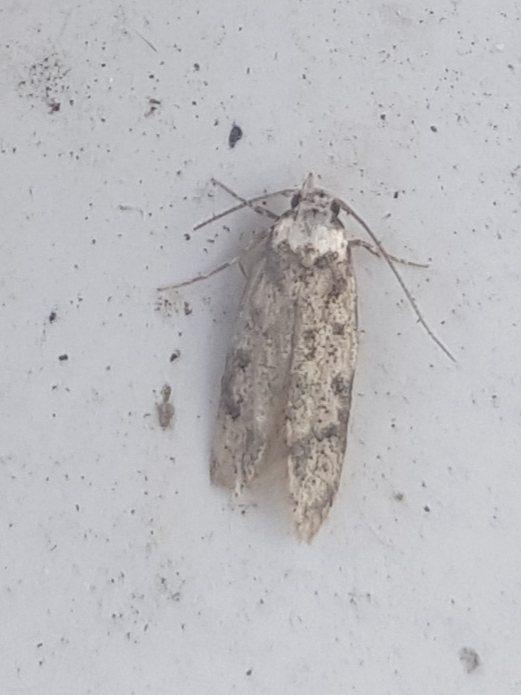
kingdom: Animalia
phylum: Arthropoda
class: Insecta
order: Lepidoptera
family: Oecophoridae
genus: Endrosis
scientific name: Endrosis sarcitrella
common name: White-shouldered house moth
